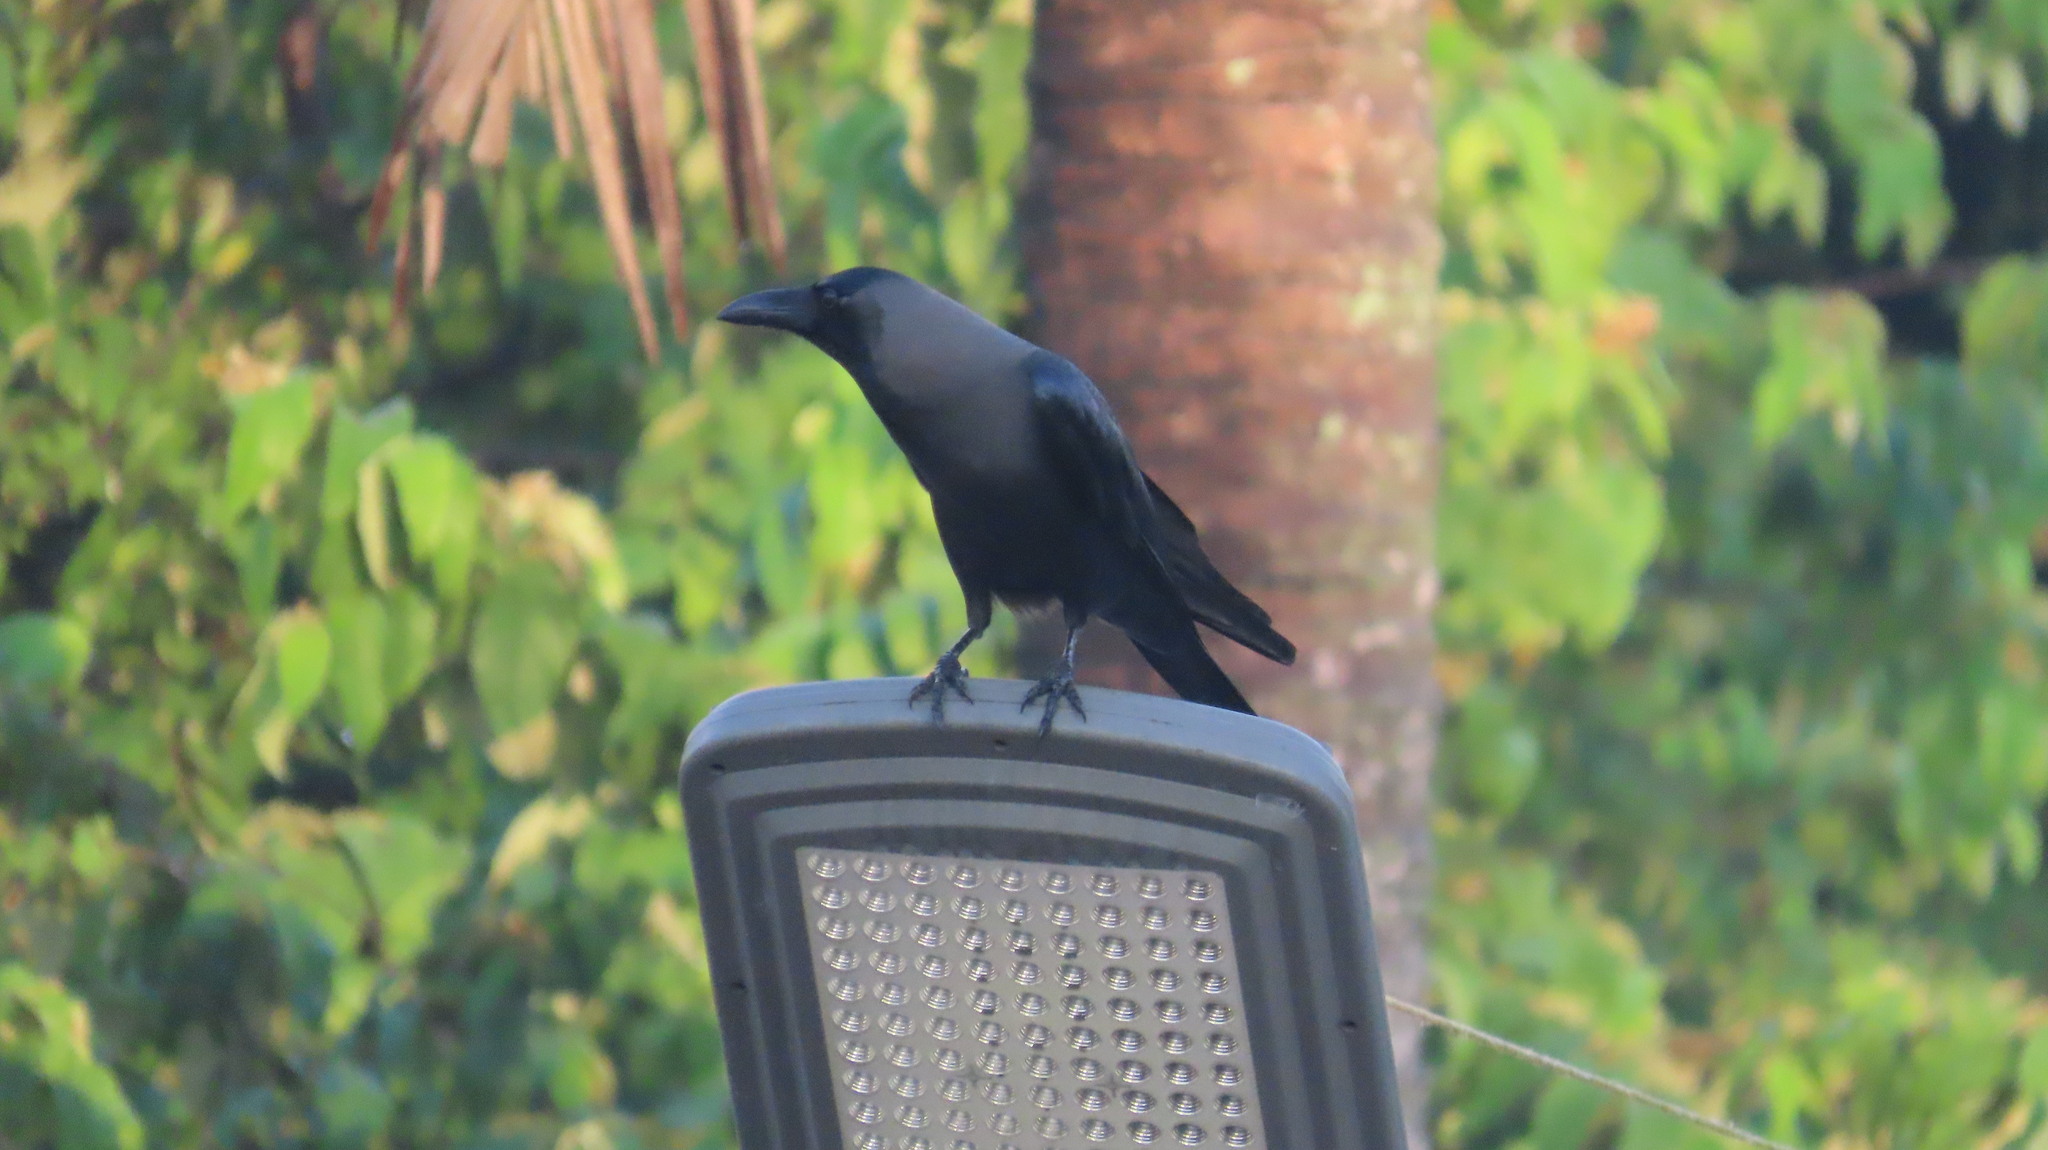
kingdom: Animalia
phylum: Chordata
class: Aves
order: Passeriformes
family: Corvidae
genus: Corvus
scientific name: Corvus splendens
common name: House crow
